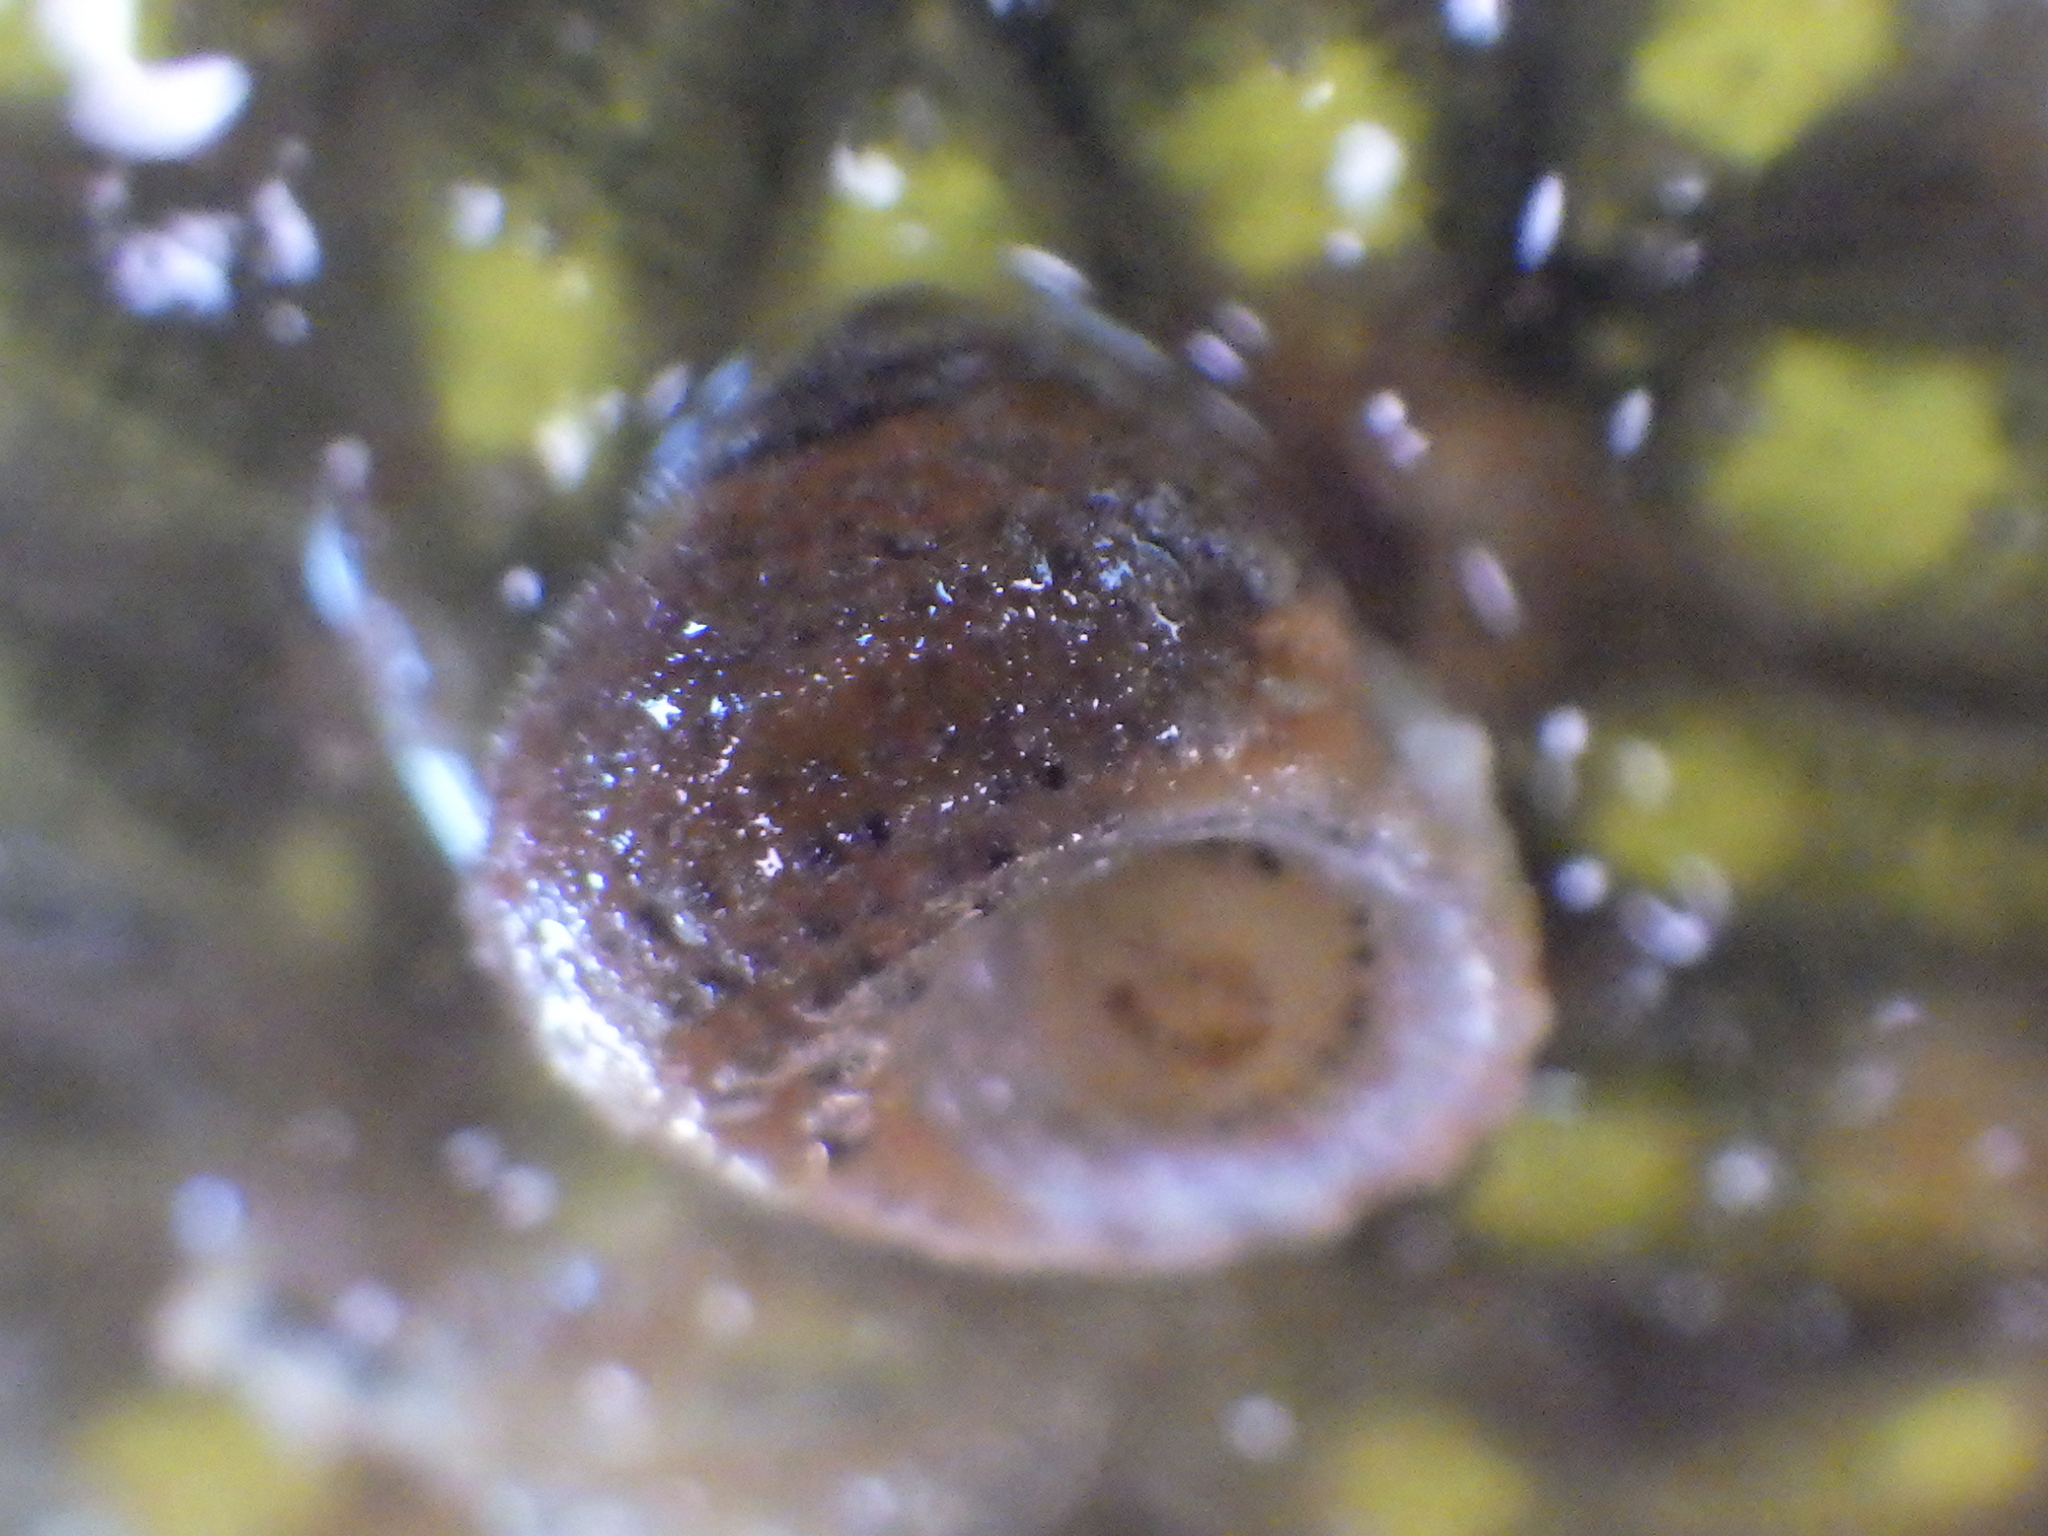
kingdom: Animalia
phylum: Mollusca
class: Gastropoda
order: Seguenziida
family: Chilodontaidae
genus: Herpetopoma
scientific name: Herpetopoma bellum
